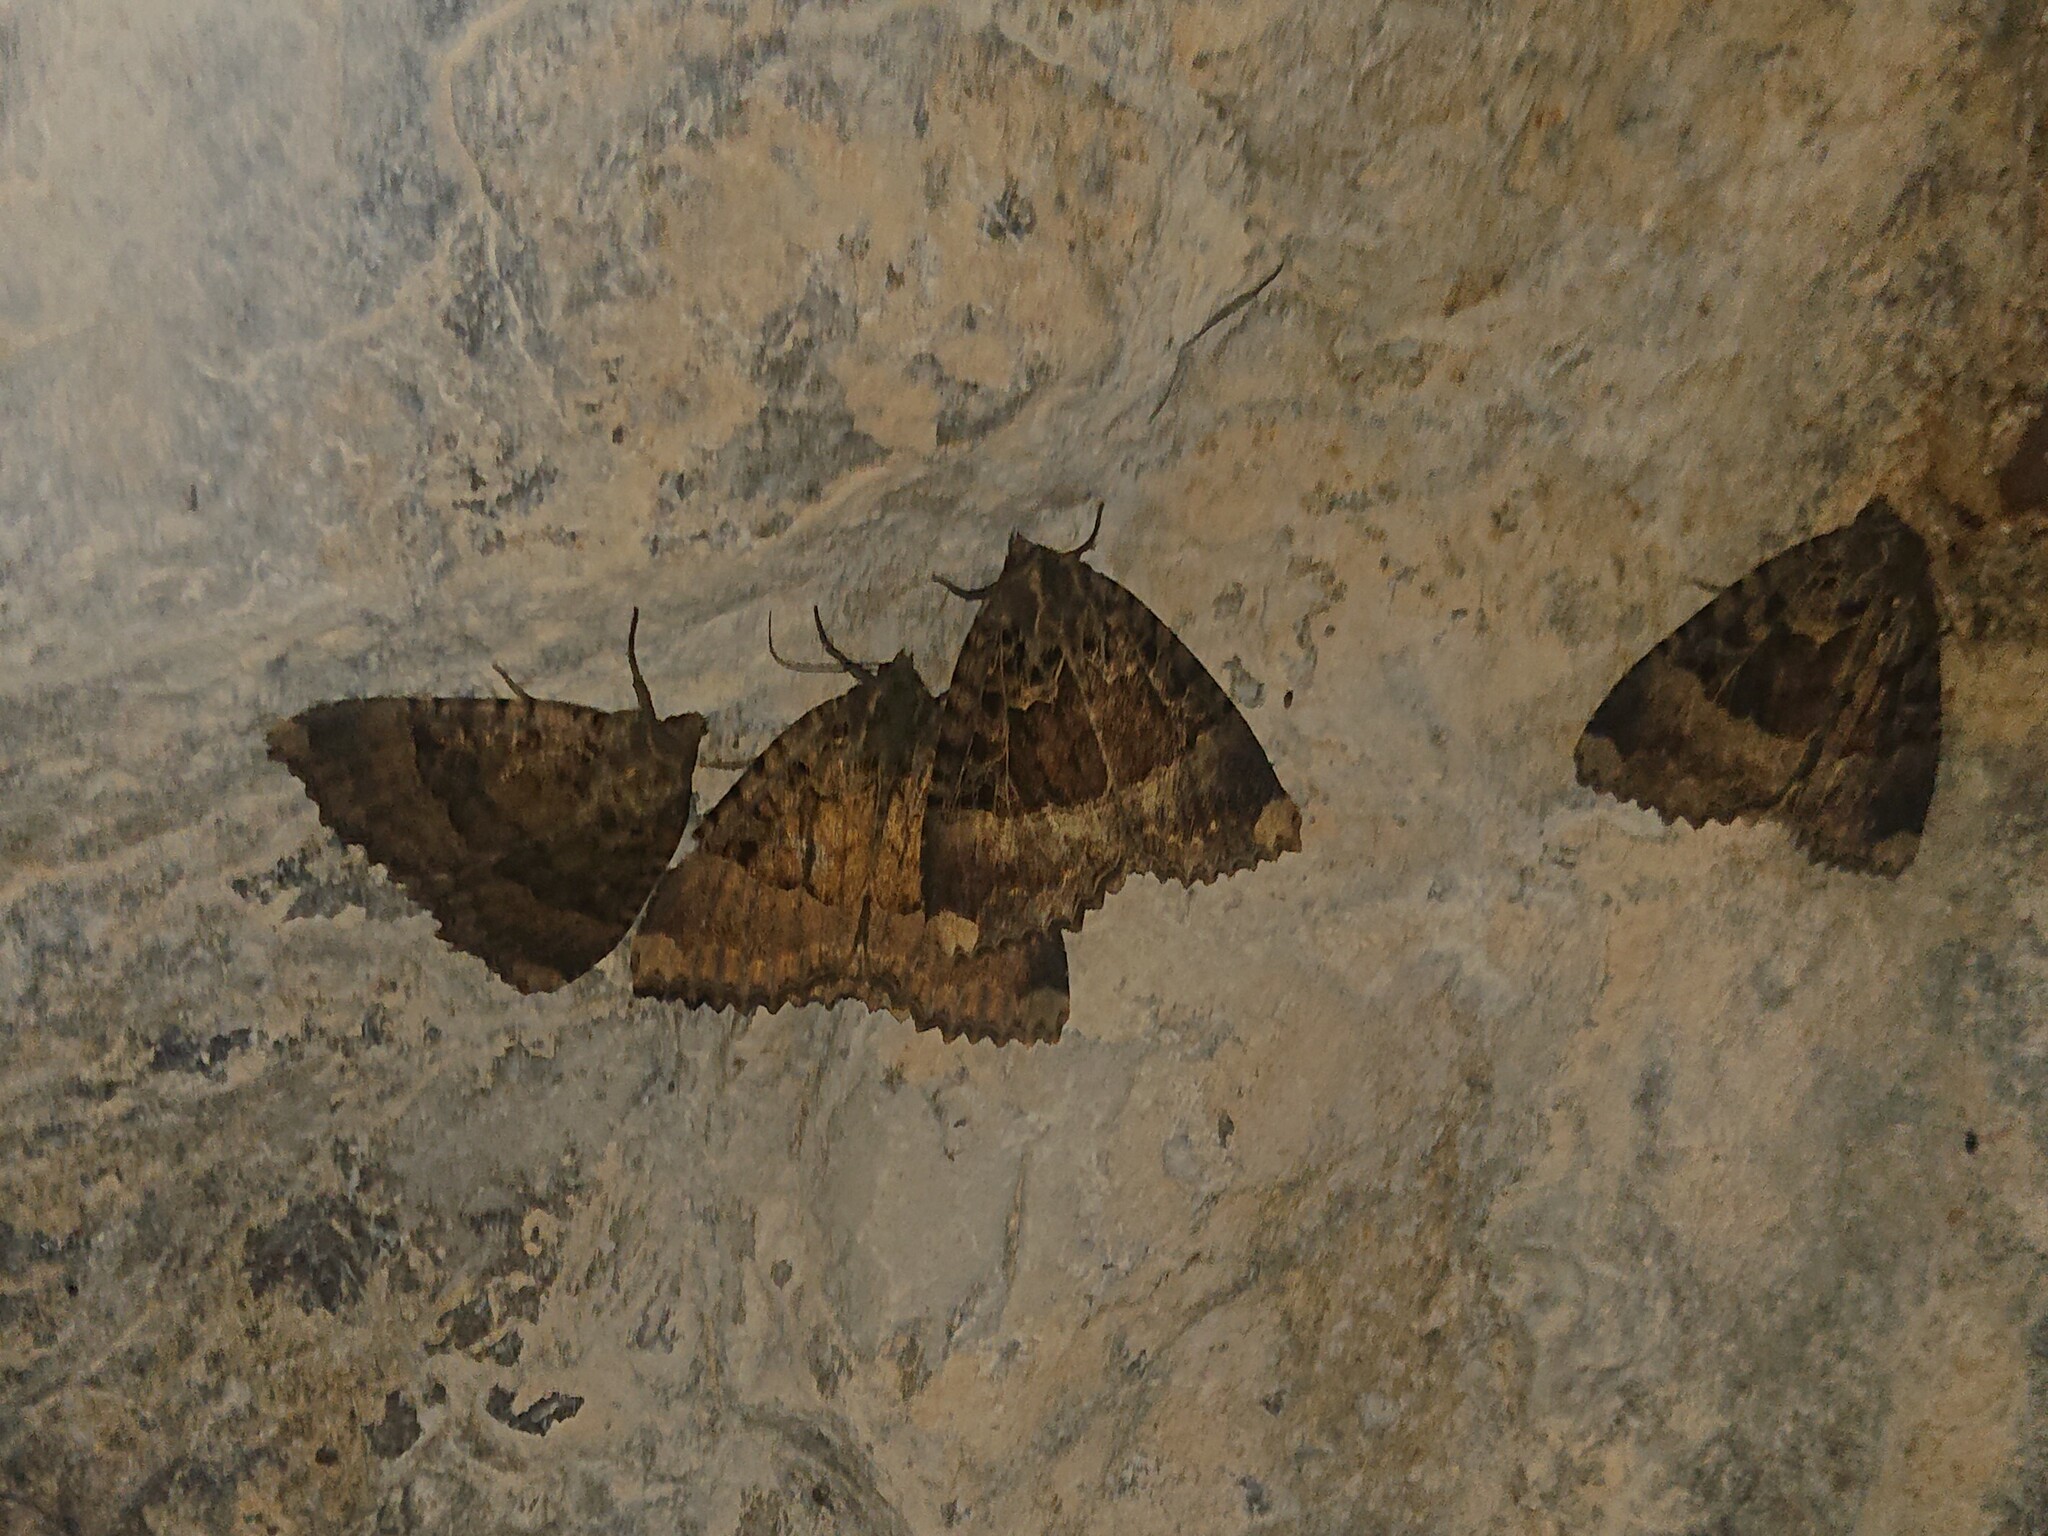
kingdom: Animalia
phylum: Arthropoda
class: Insecta
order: Lepidoptera
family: Noctuidae
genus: Mormo
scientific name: Mormo maura
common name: Old lady
